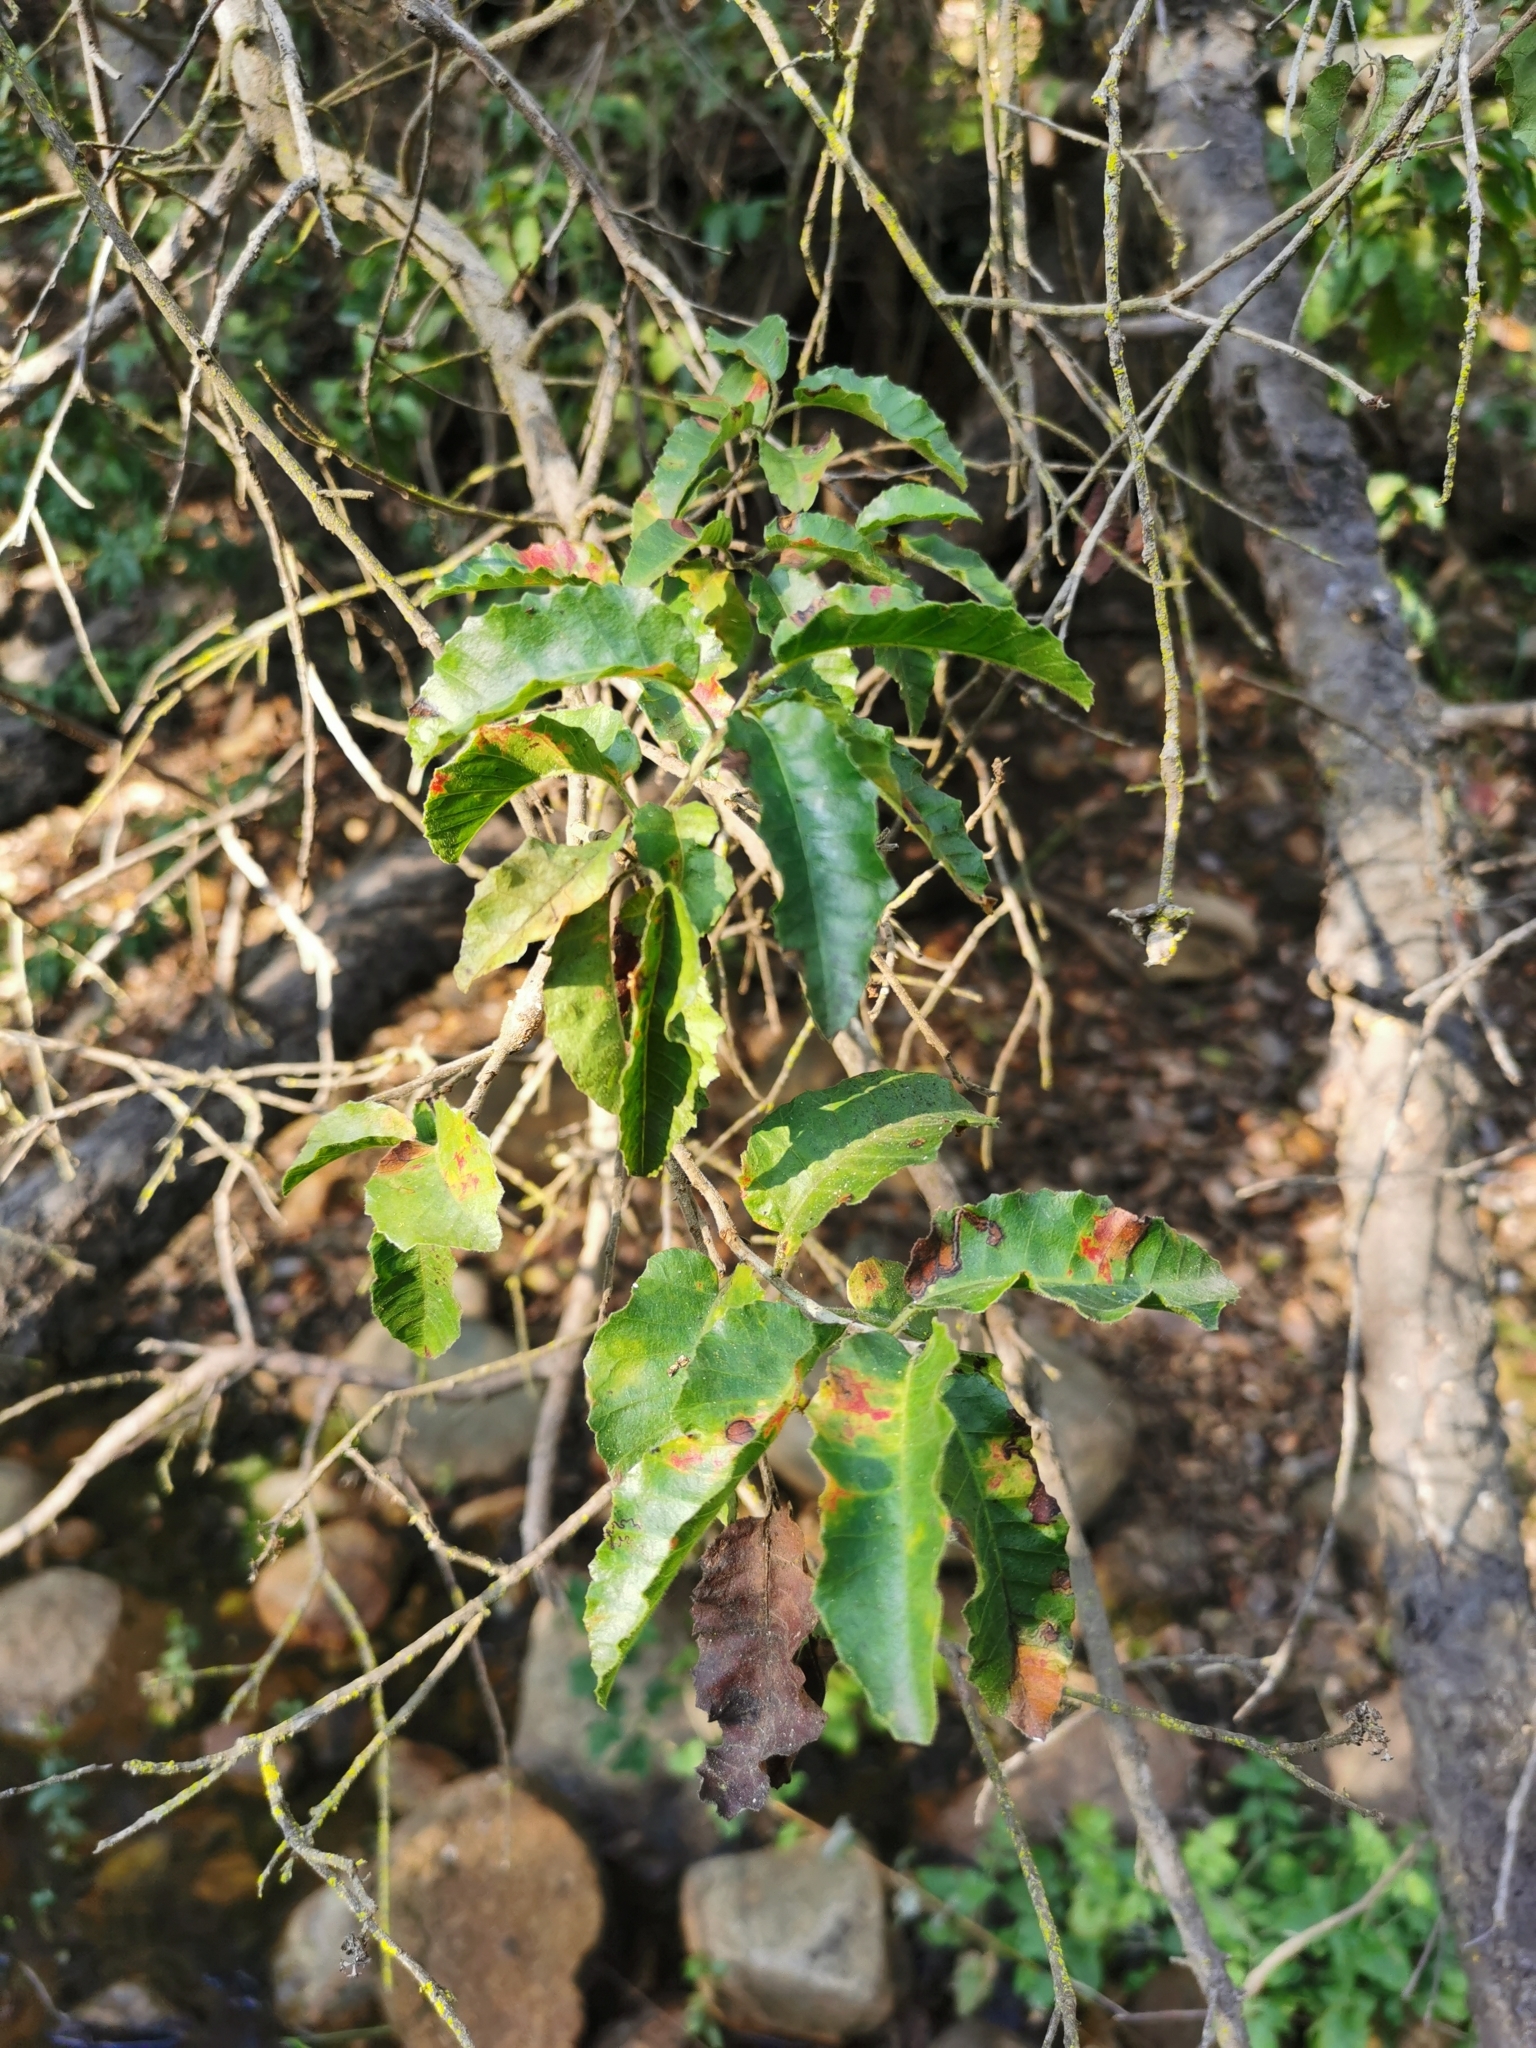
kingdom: Plantae
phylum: Tracheophyta
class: Magnoliopsida
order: Sapindales
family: Anacardiaceae
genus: Schinus
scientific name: Schinus latifolia
